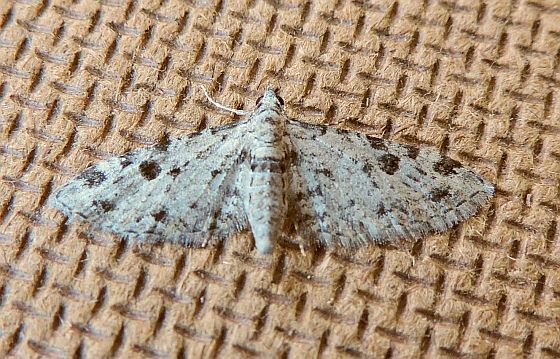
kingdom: Animalia
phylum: Arthropoda
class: Insecta
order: Lepidoptera
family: Geometridae
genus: Eupithecia
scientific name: Eupithecia
